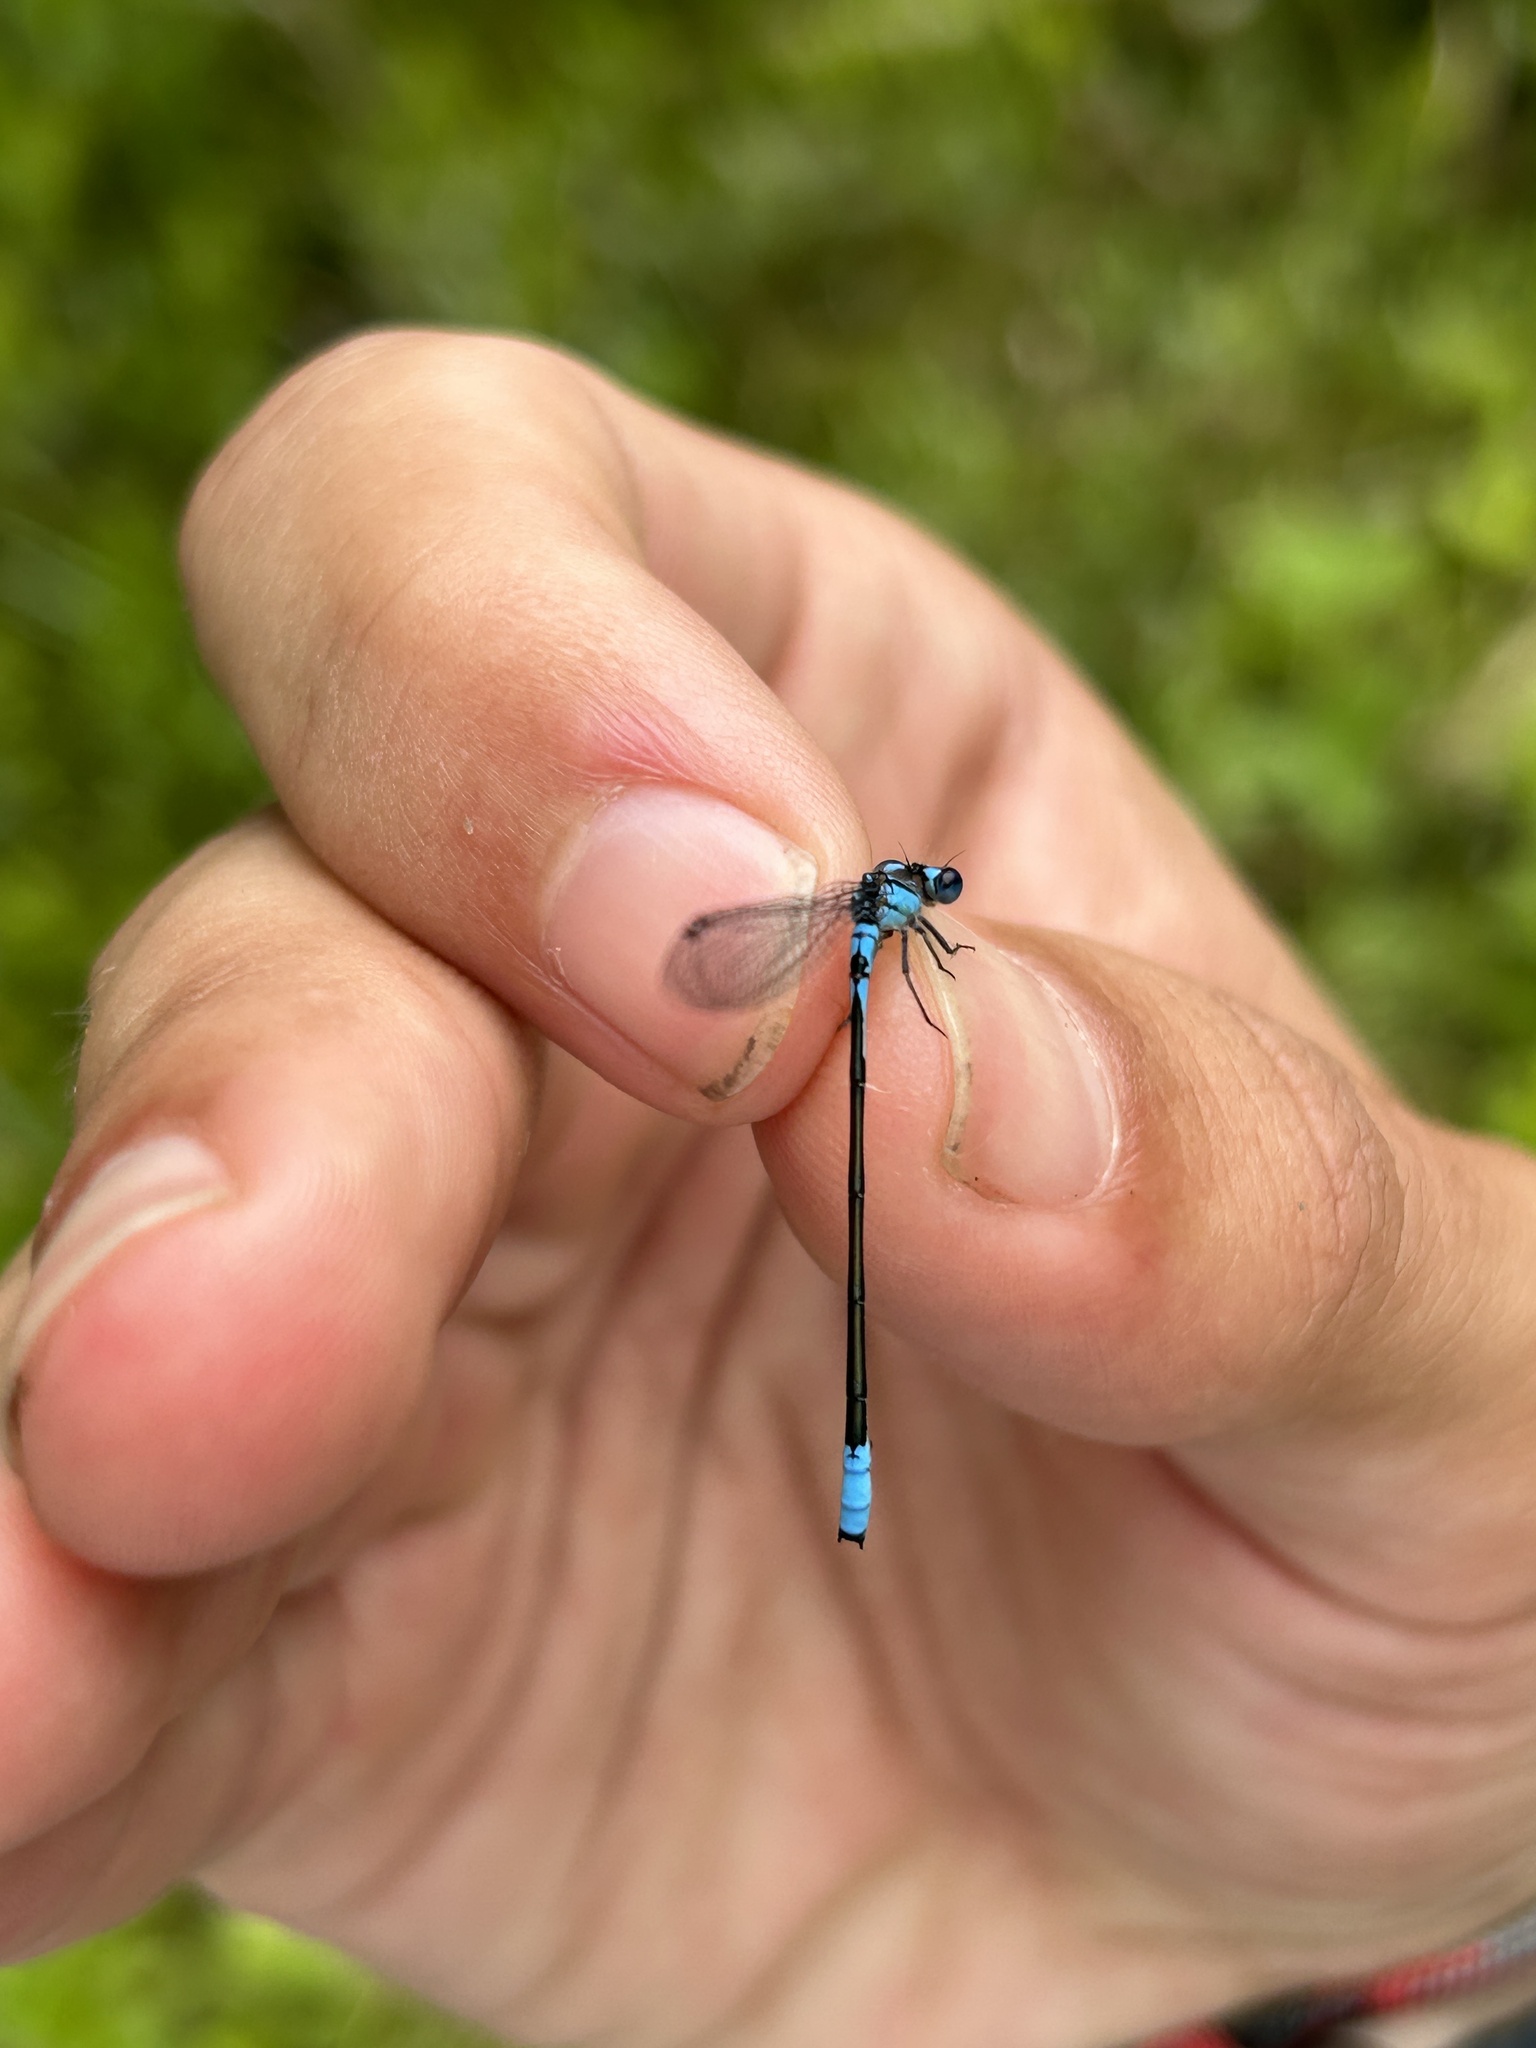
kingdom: Animalia
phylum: Arthropoda
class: Insecta
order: Odonata
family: Coenagrionidae
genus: Enallagma
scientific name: Enallagma aspersum
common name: Azure bluet
